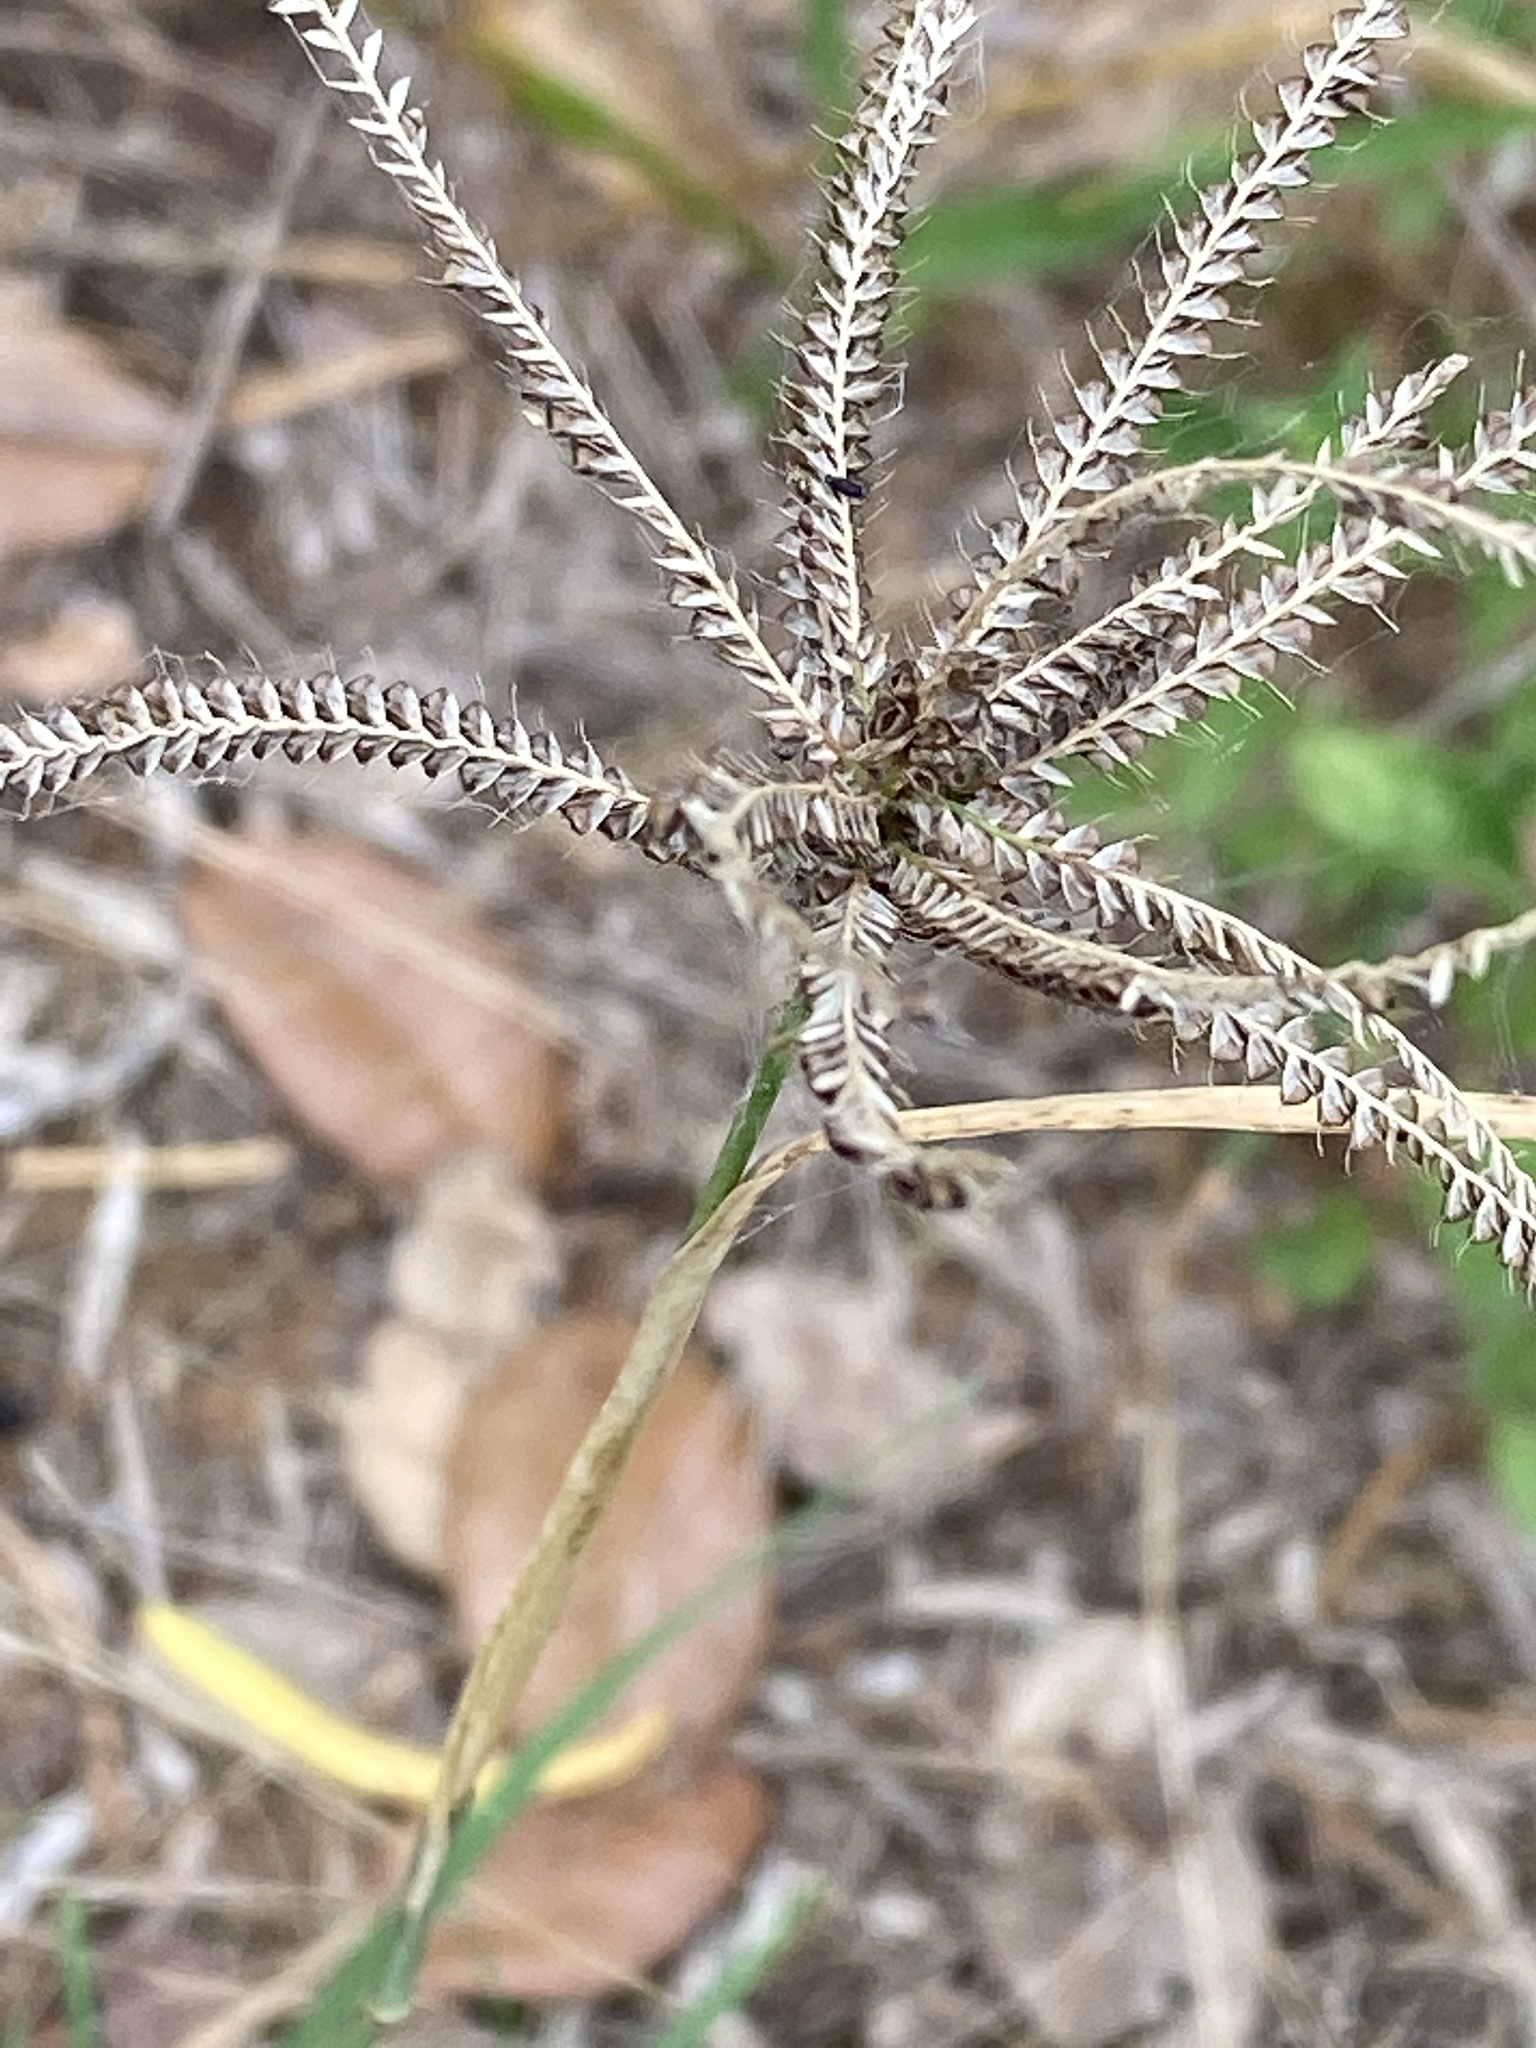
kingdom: Plantae
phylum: Tracheophyta
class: Liliopsida
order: Poales
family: Poaceae
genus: Chloris
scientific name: Chloris cucullata
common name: Hooded windmill grass
